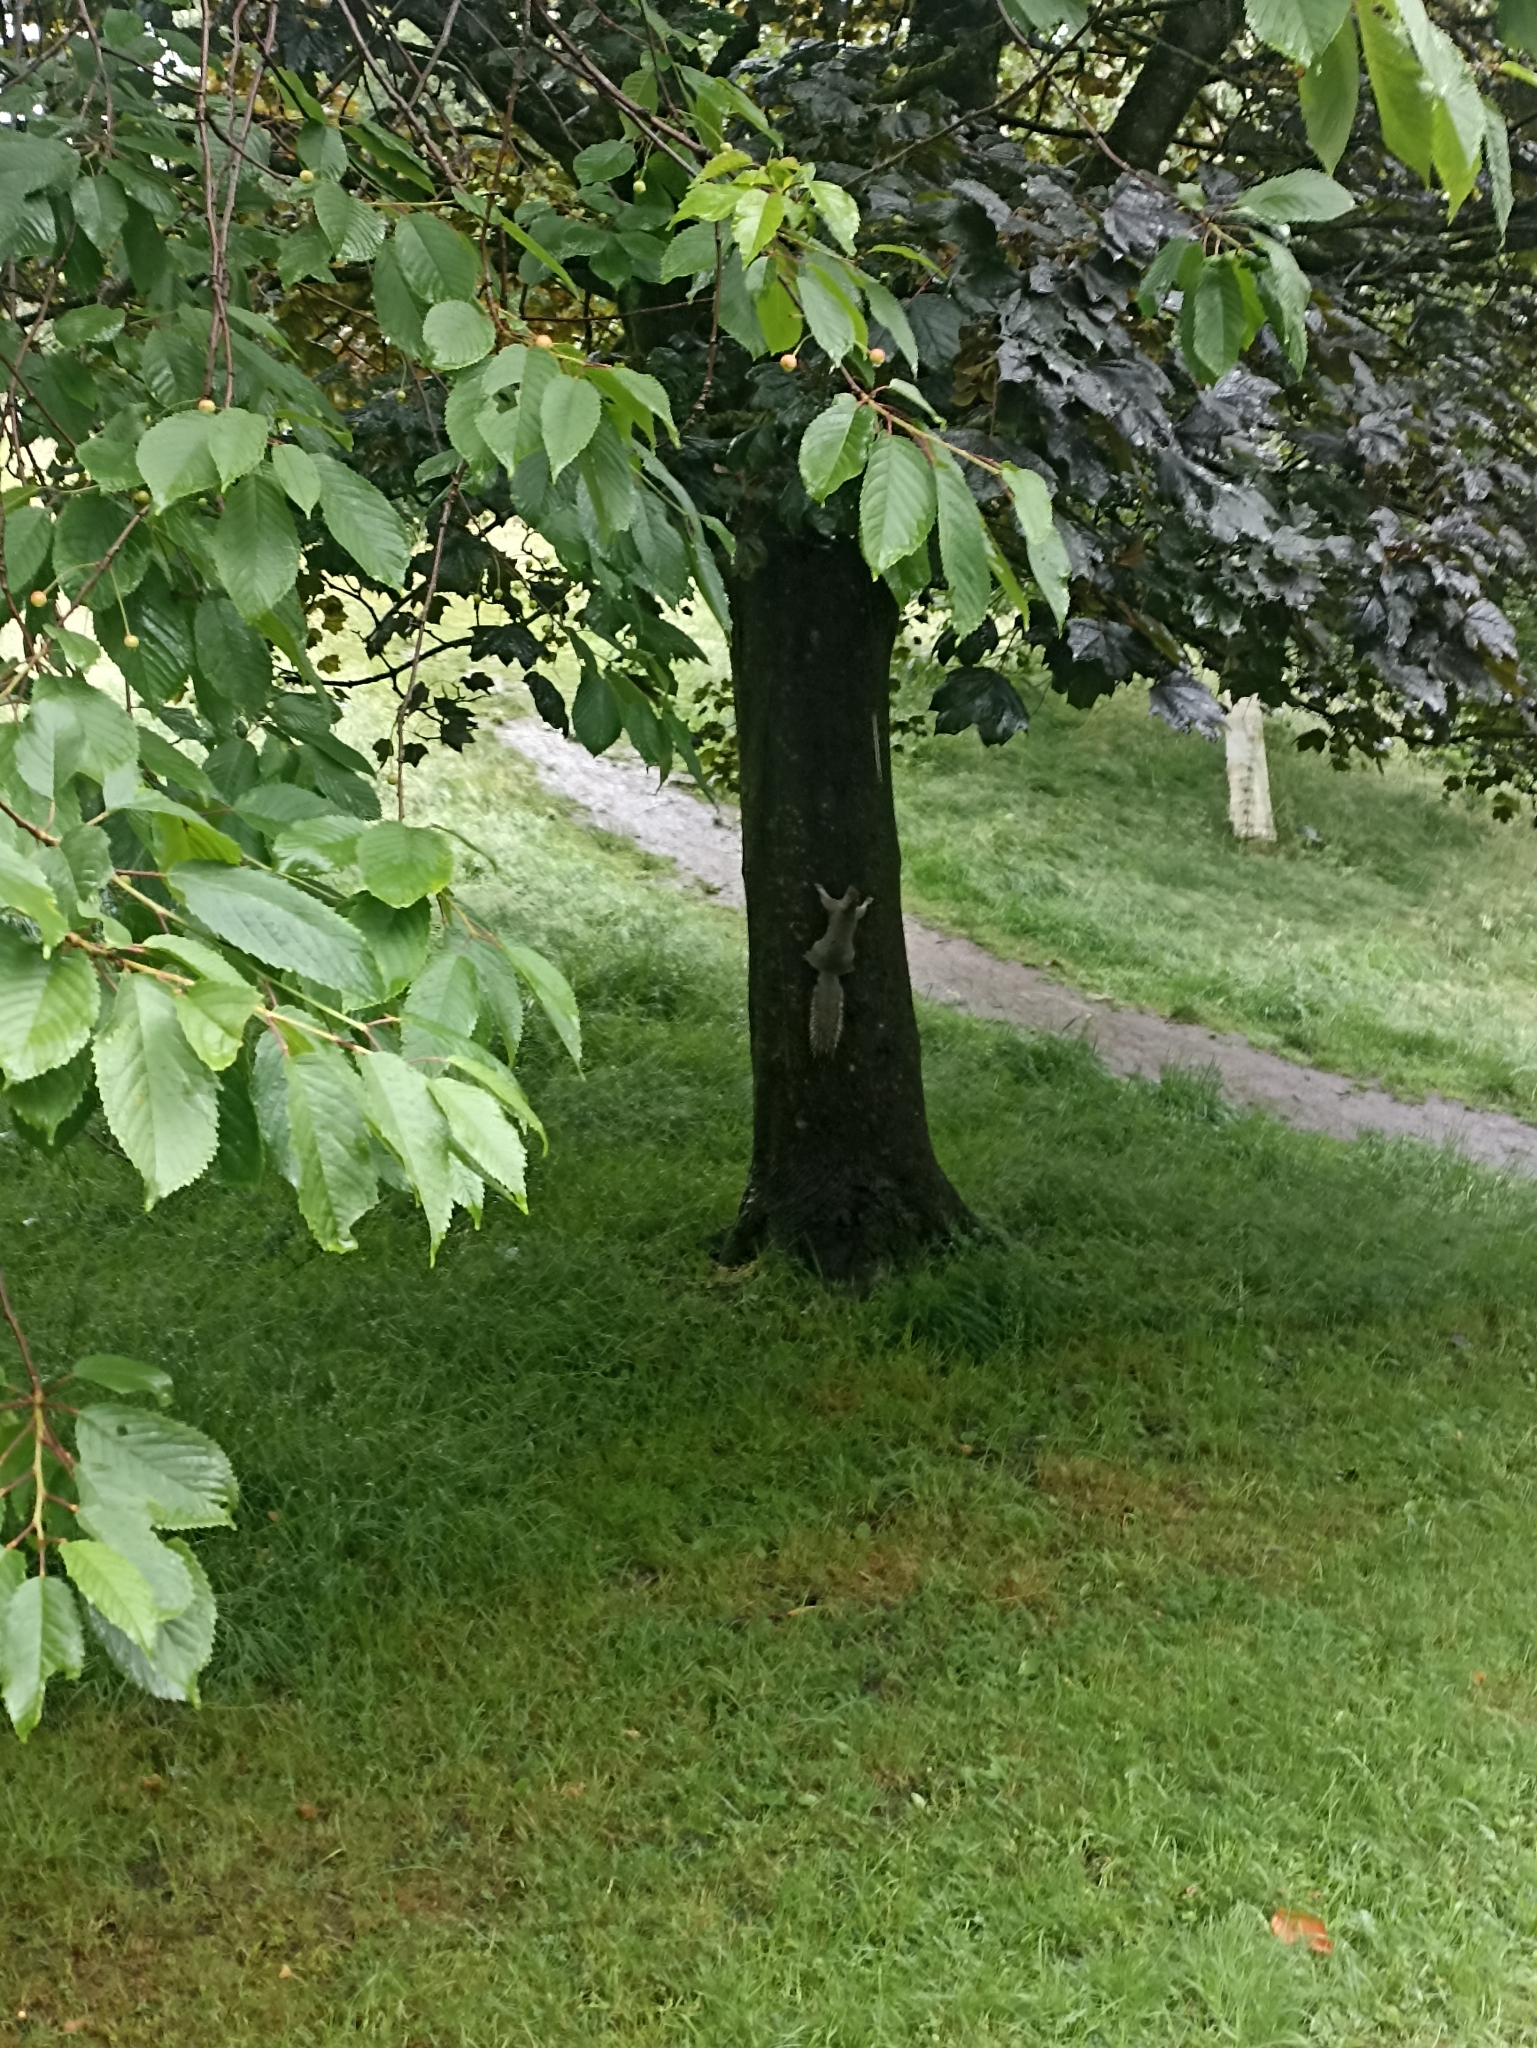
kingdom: Animalia
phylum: Chordata
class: Mammalia
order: Rodentia
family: Sciuridae
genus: Sciurus
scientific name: Sciurus carolinensis
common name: Eastern gray squirrel
